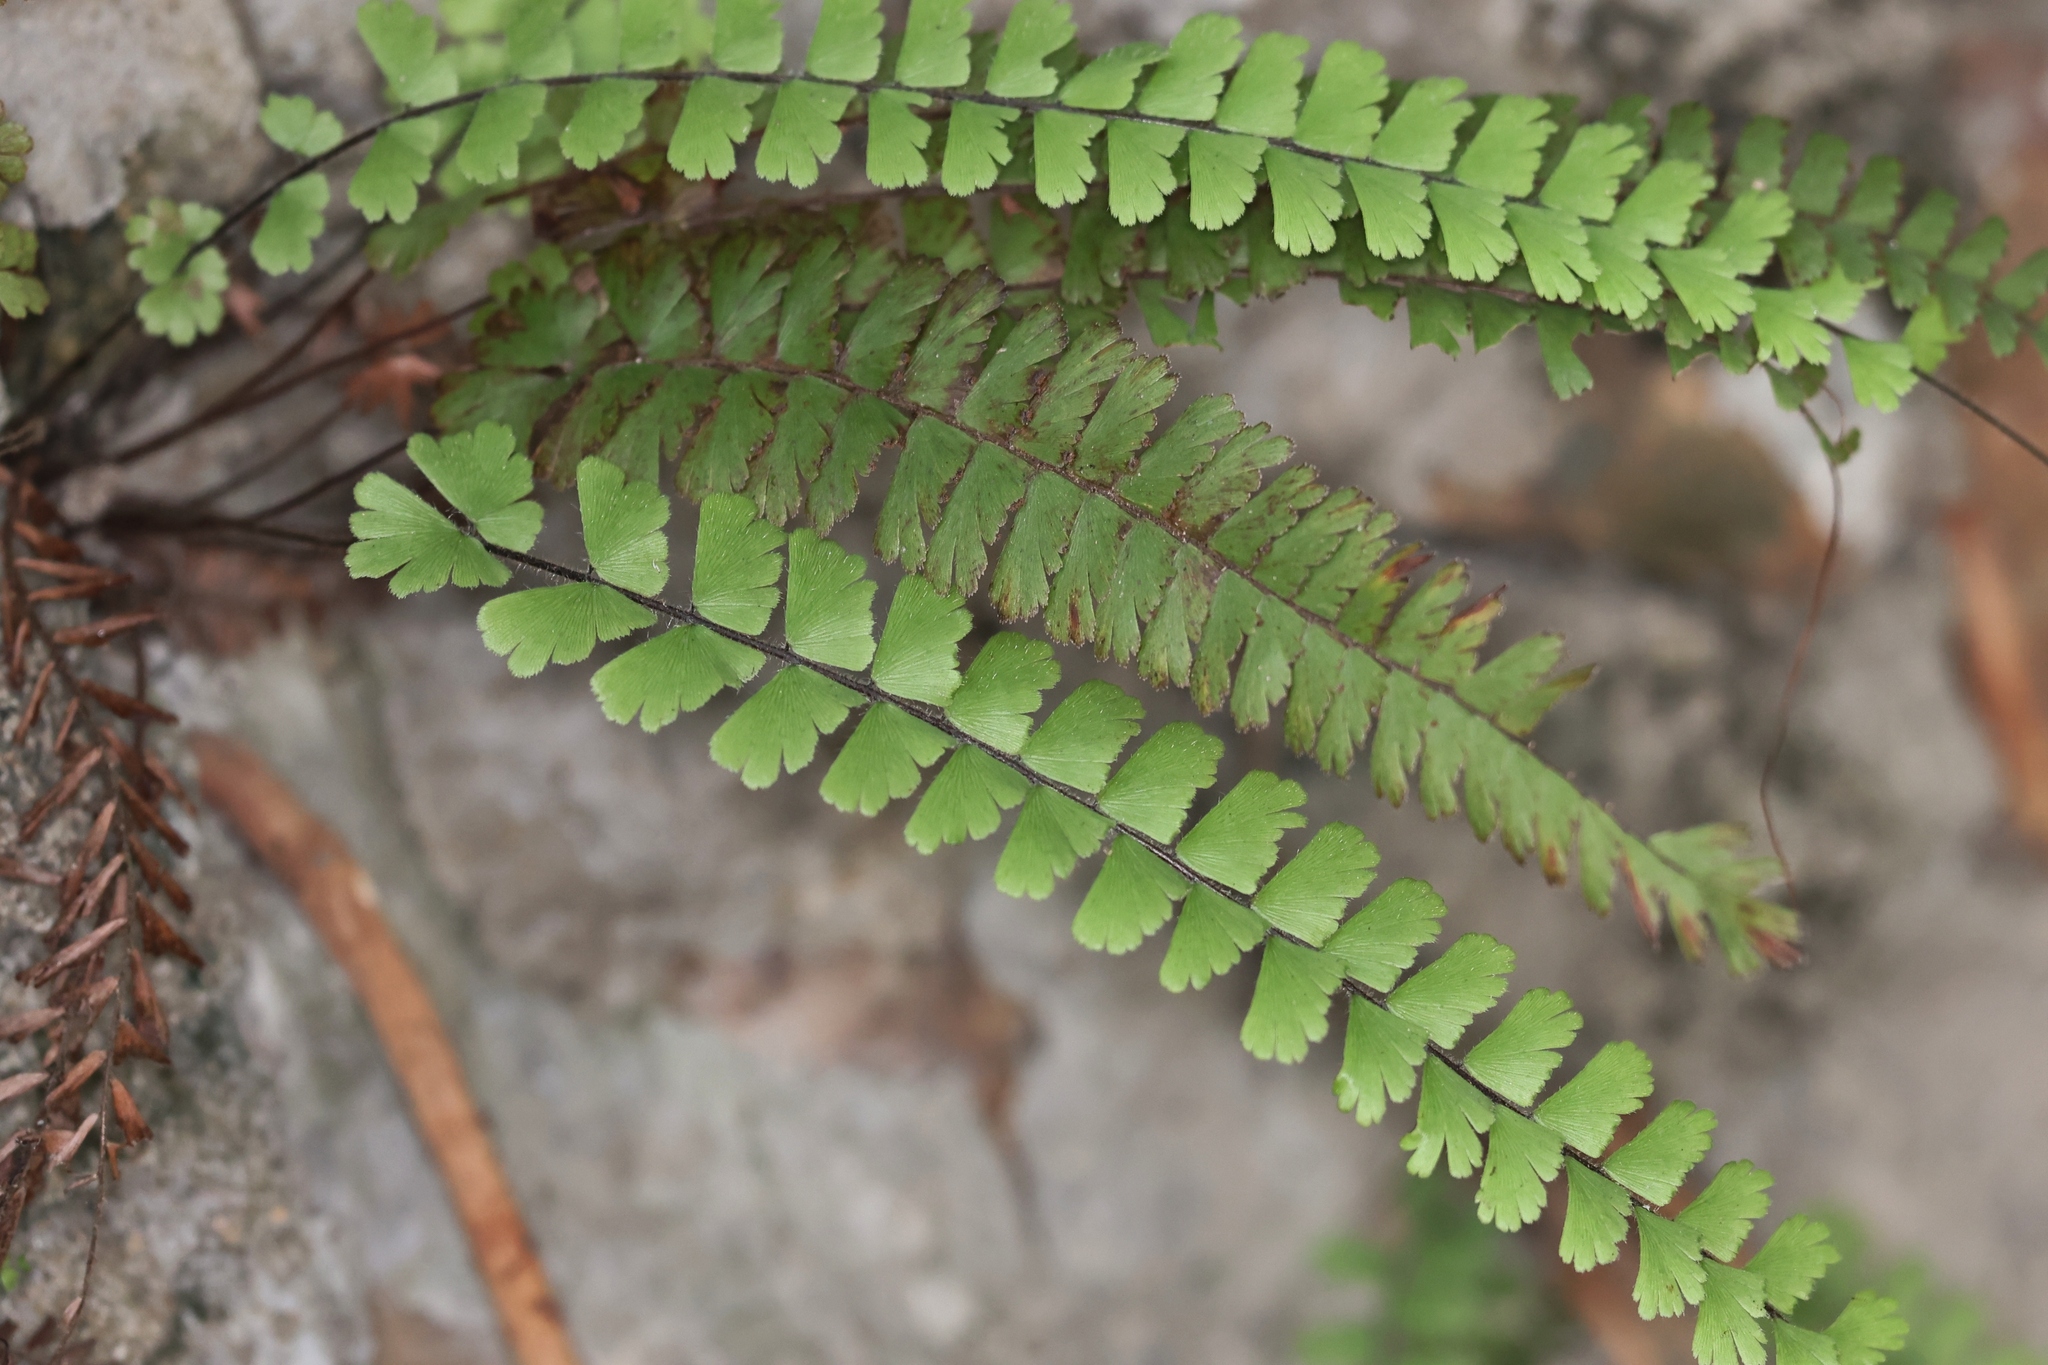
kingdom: Plantae
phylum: Tracheophyta
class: Polypodiopsida
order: Polypodiales
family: Pteridaceae
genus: Adiantum
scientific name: Adiantum ciliatum
